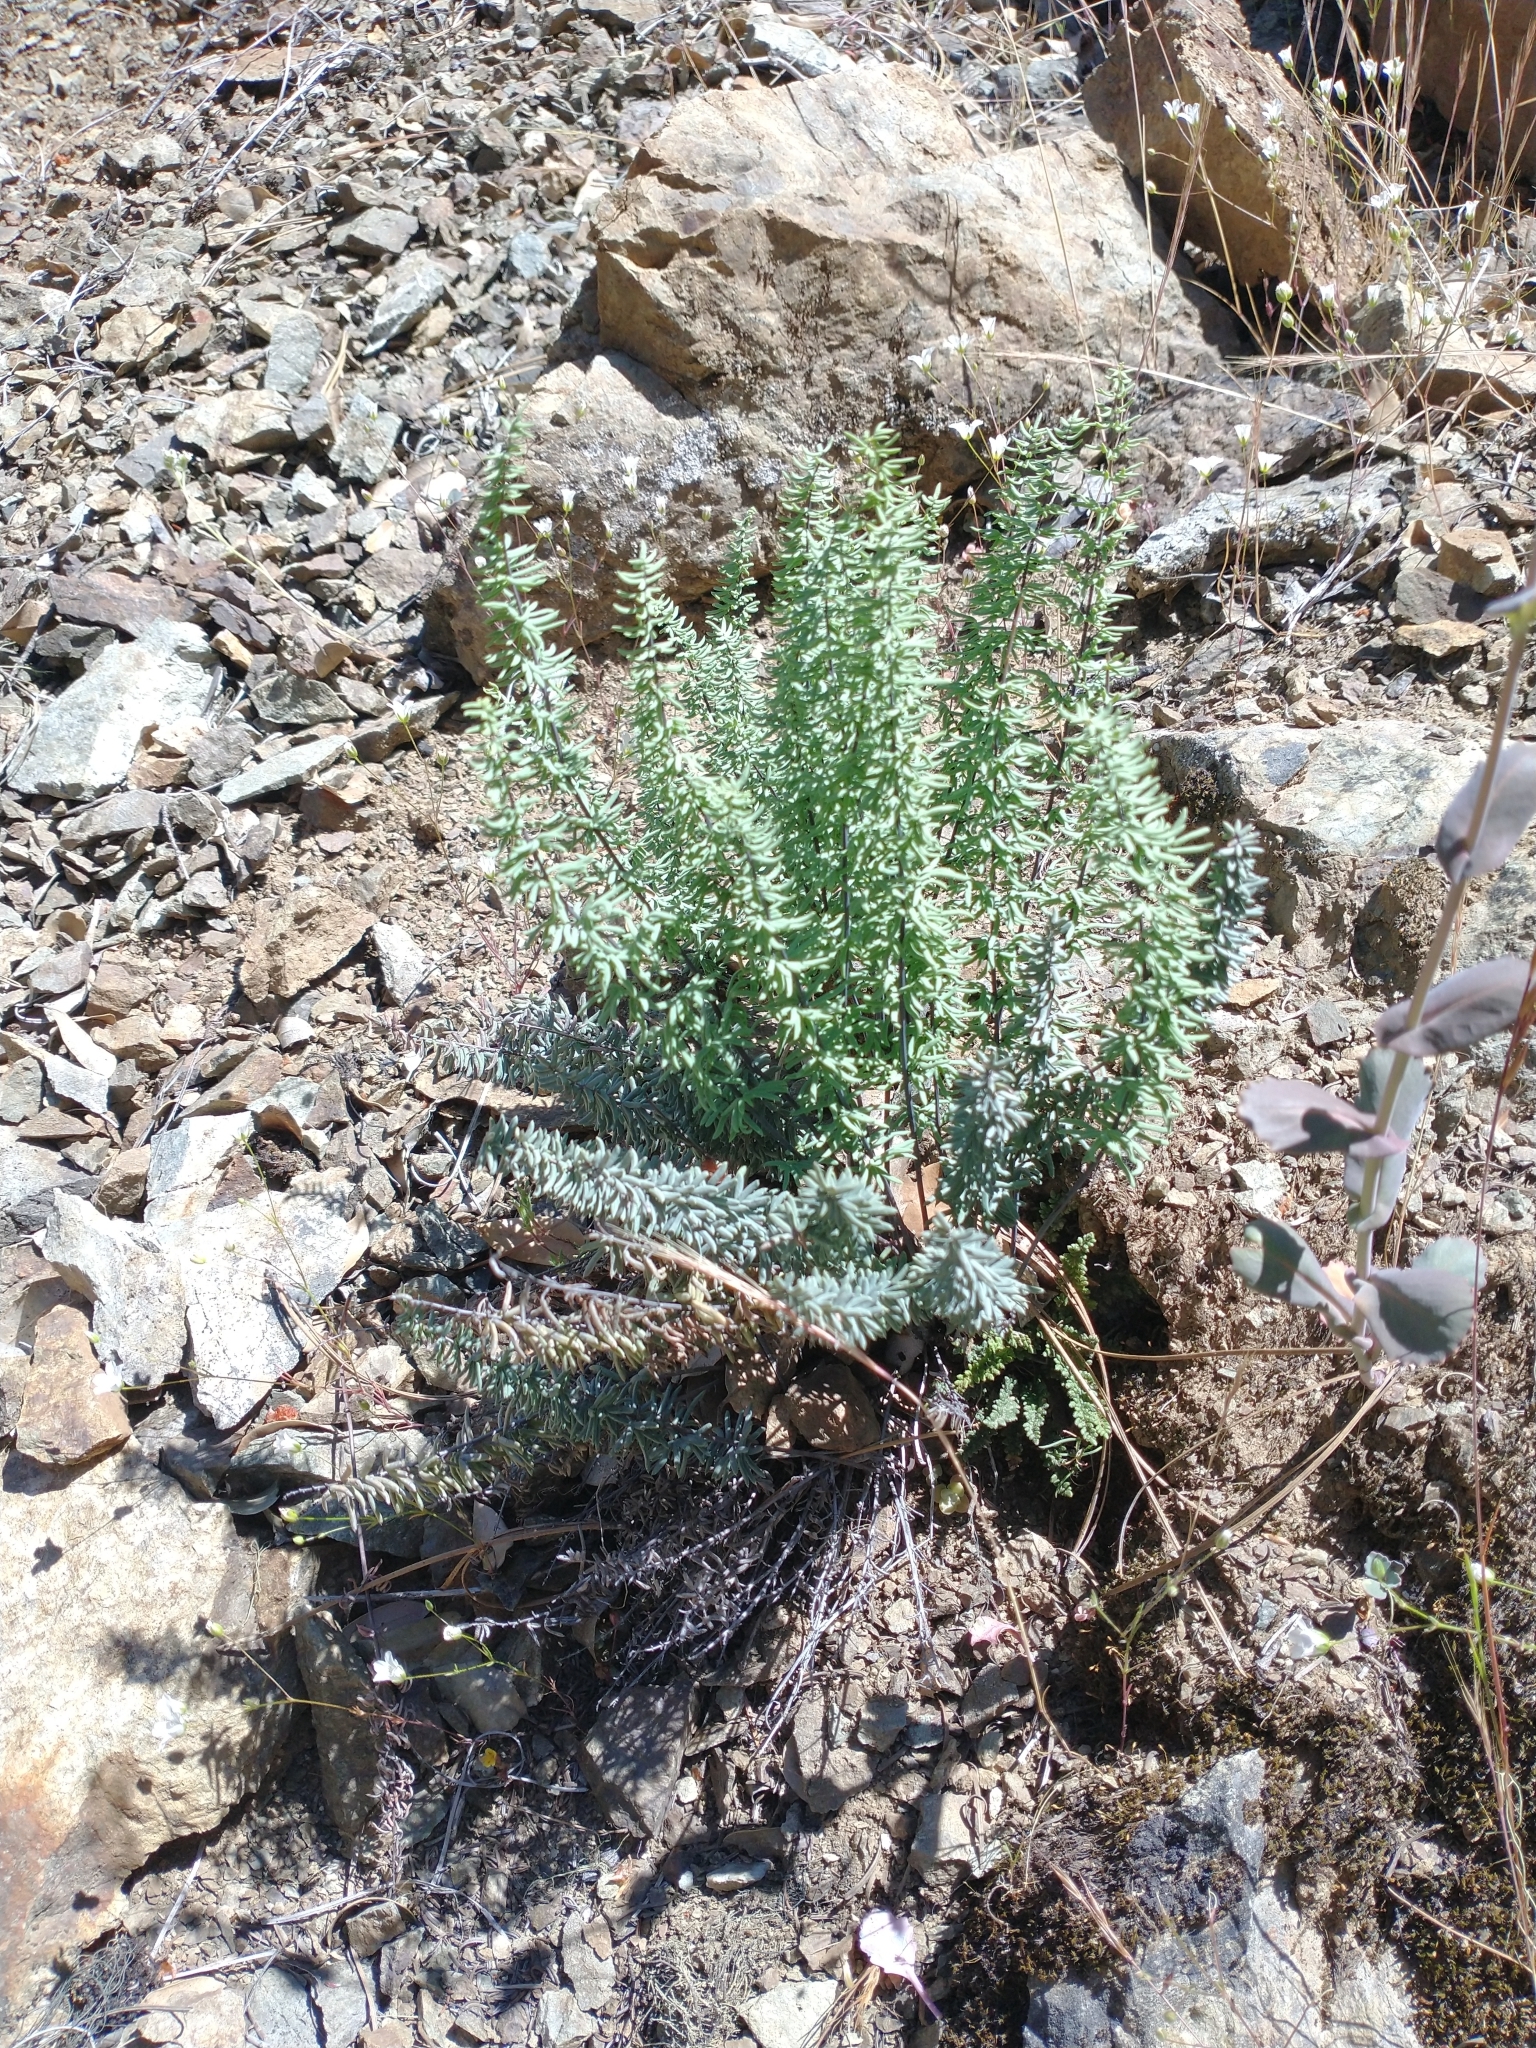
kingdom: Plantae
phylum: Tracheophyta
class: Polypodiopsida
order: Polypodiales
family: Pteridaceae
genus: Pellaea
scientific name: Pellaea brachyptera
